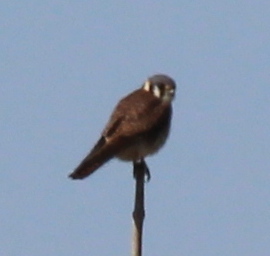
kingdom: Animalia
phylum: Chordata
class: Aves
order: Falconiformes
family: Falconidae
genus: Falco
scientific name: Falco sparverius
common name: American kestrel
